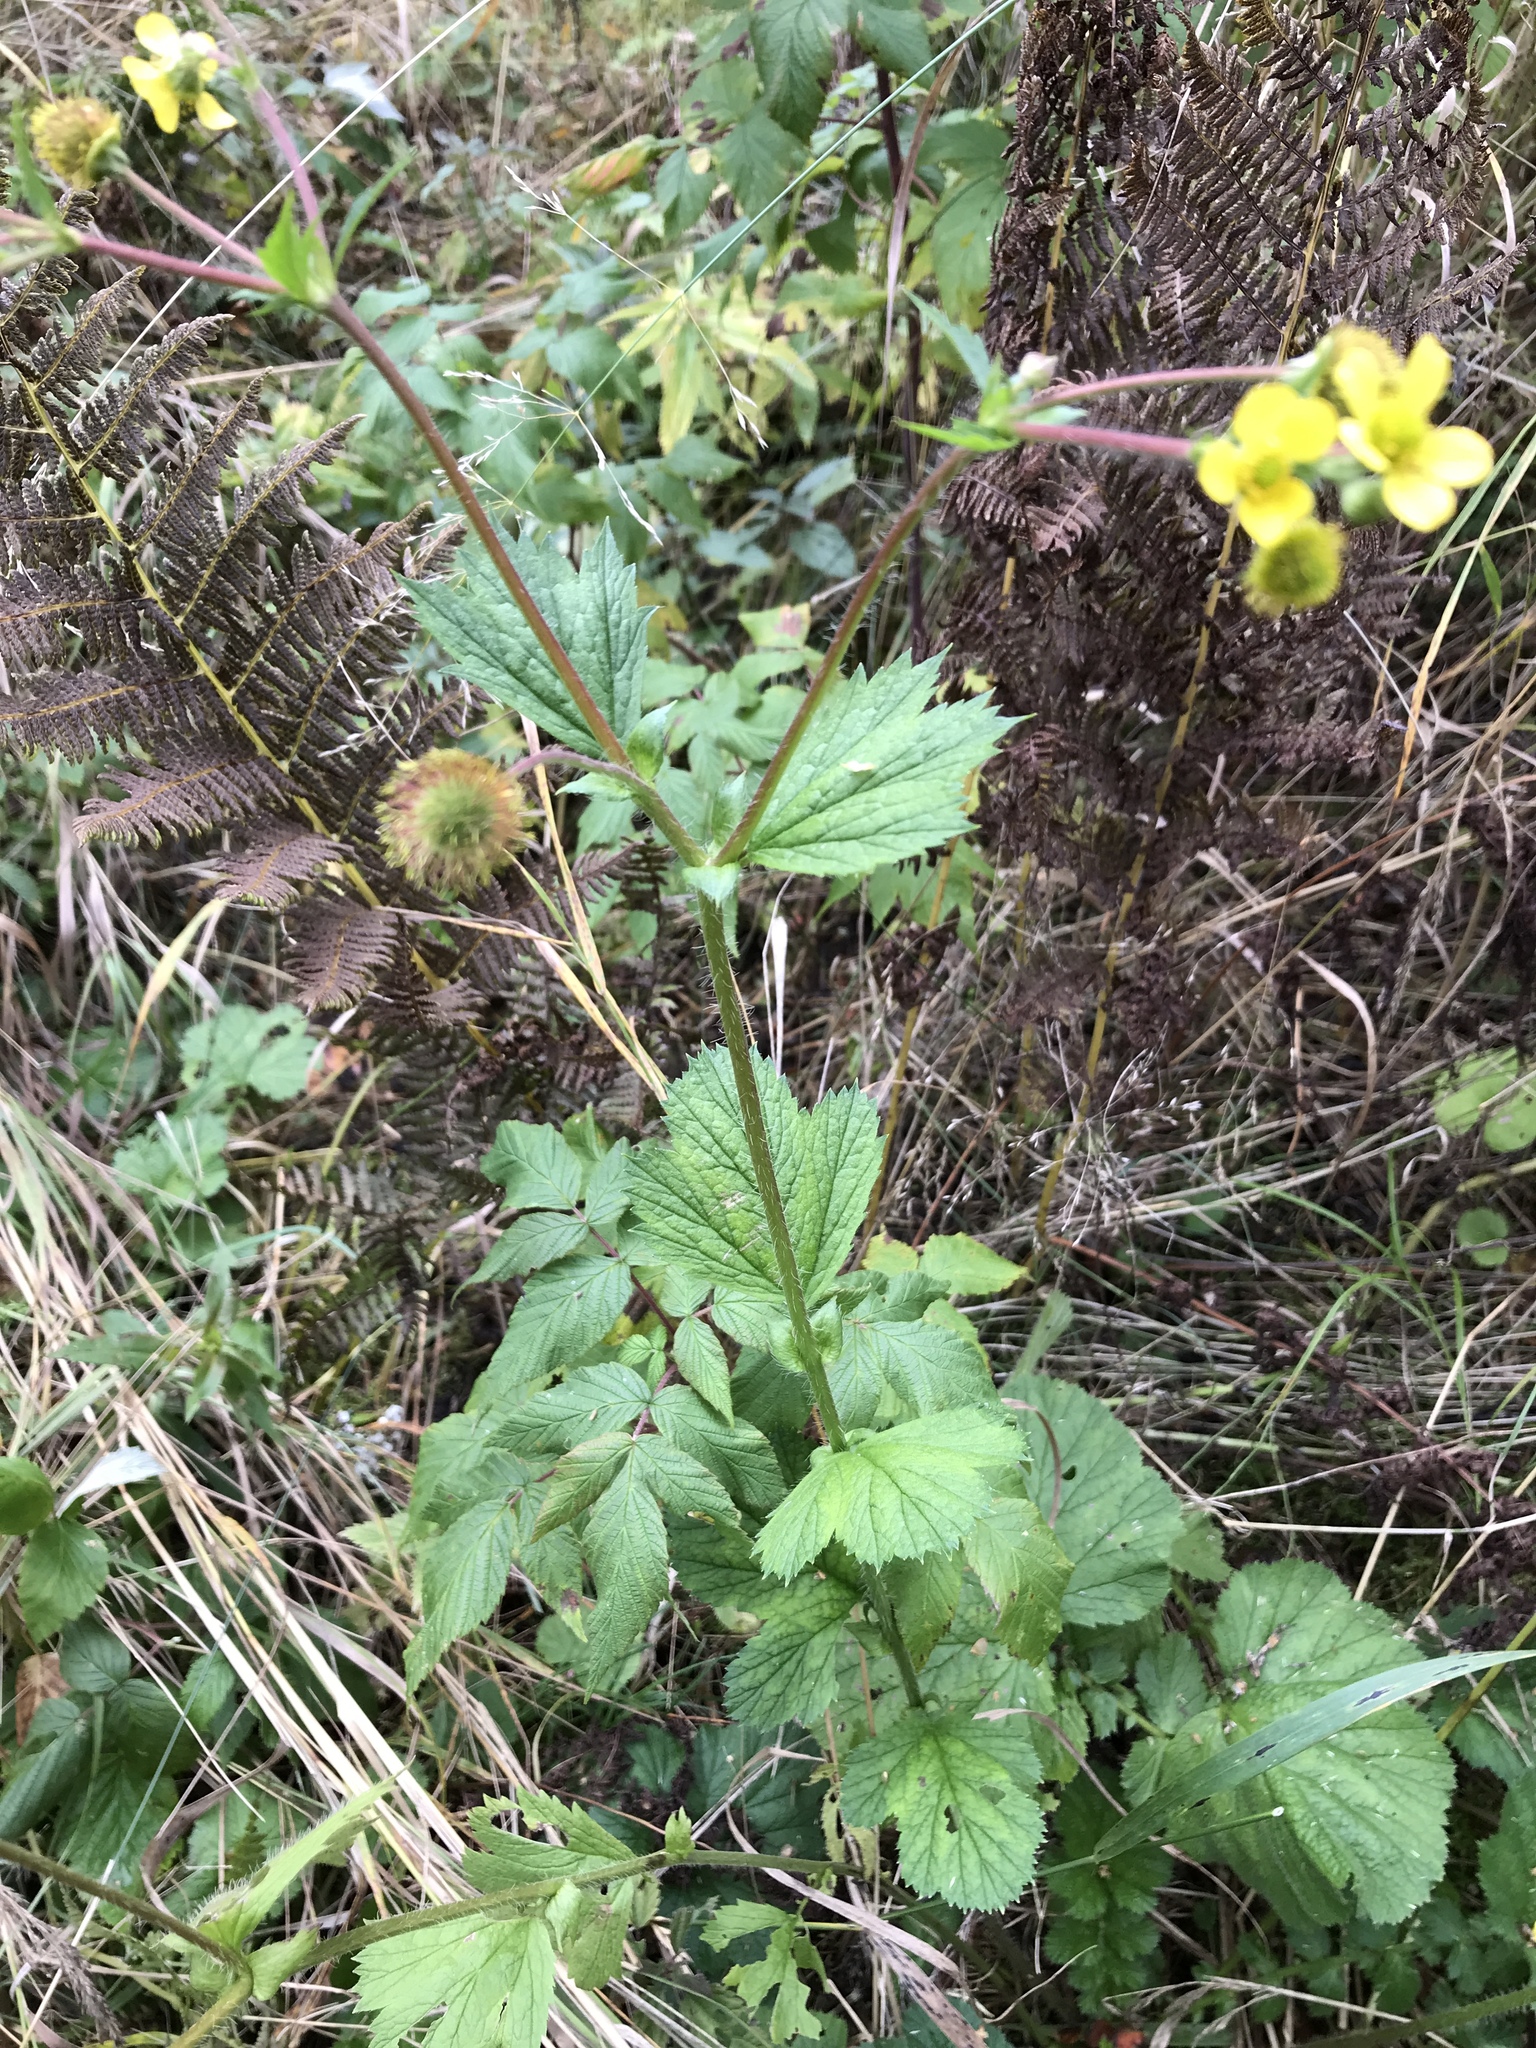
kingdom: Plantae
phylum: Tracheophyta
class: Magnoliopsida
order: Rosales
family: Rosaceae
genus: Geum
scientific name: Geum macrophyllum
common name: Large-leaved avens
